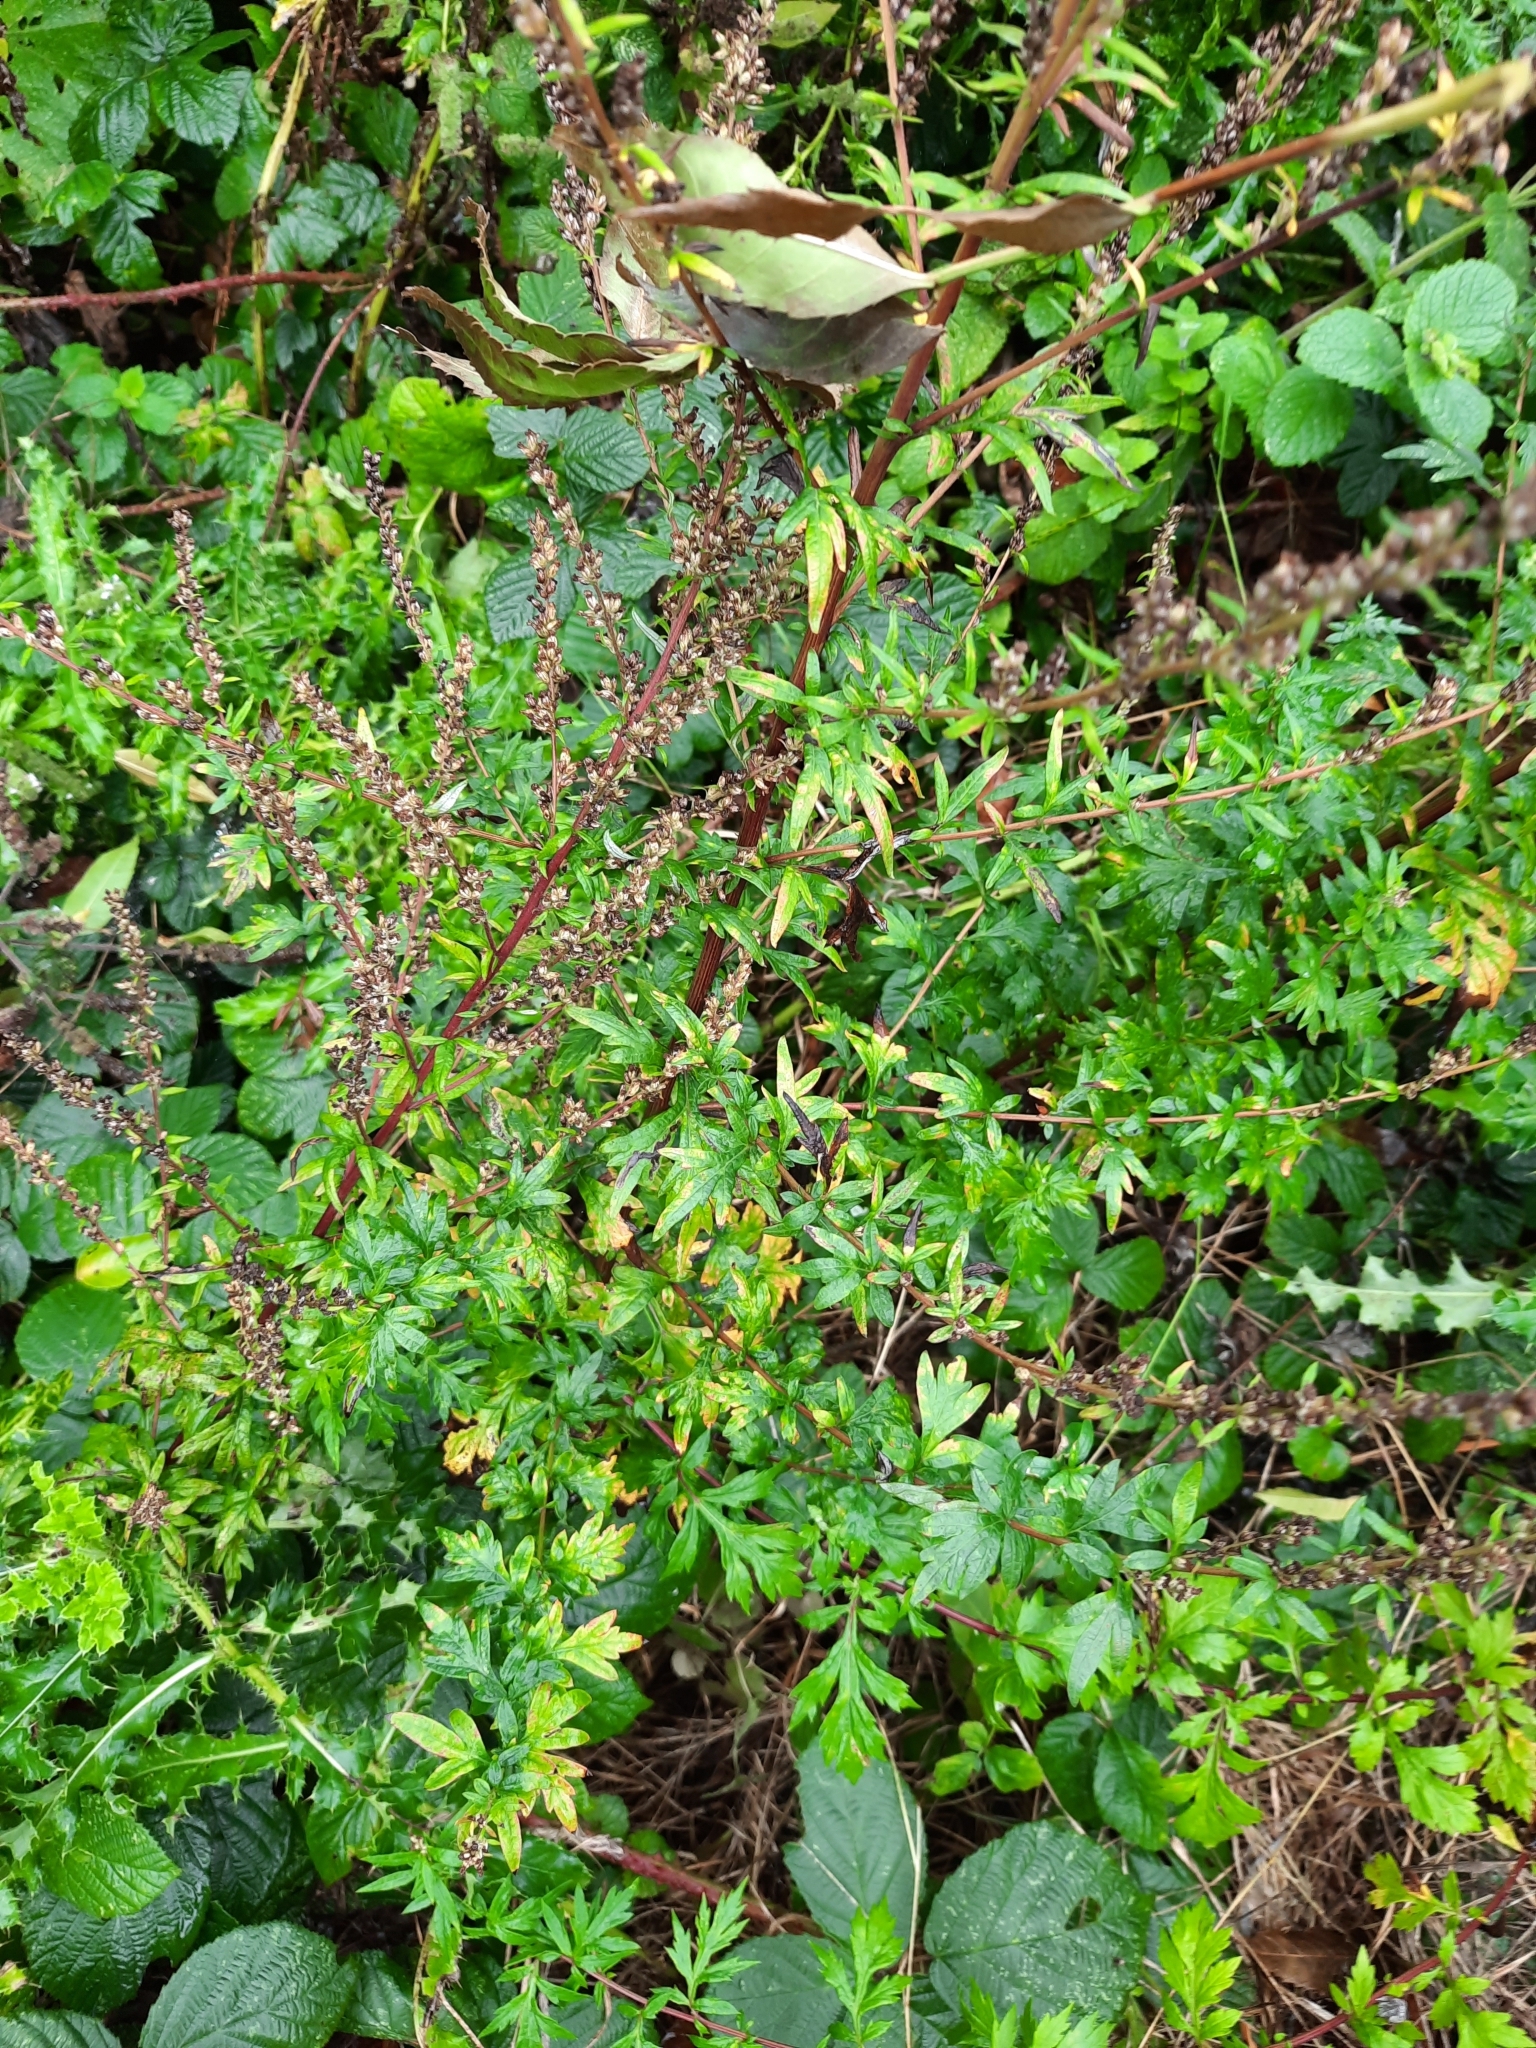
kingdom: Plantae
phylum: Tracheophyta
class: Magnoliopsida
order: Asterales
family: Asteraceae
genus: Artemisia
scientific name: Artemisia vulgaris
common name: Mugwort
